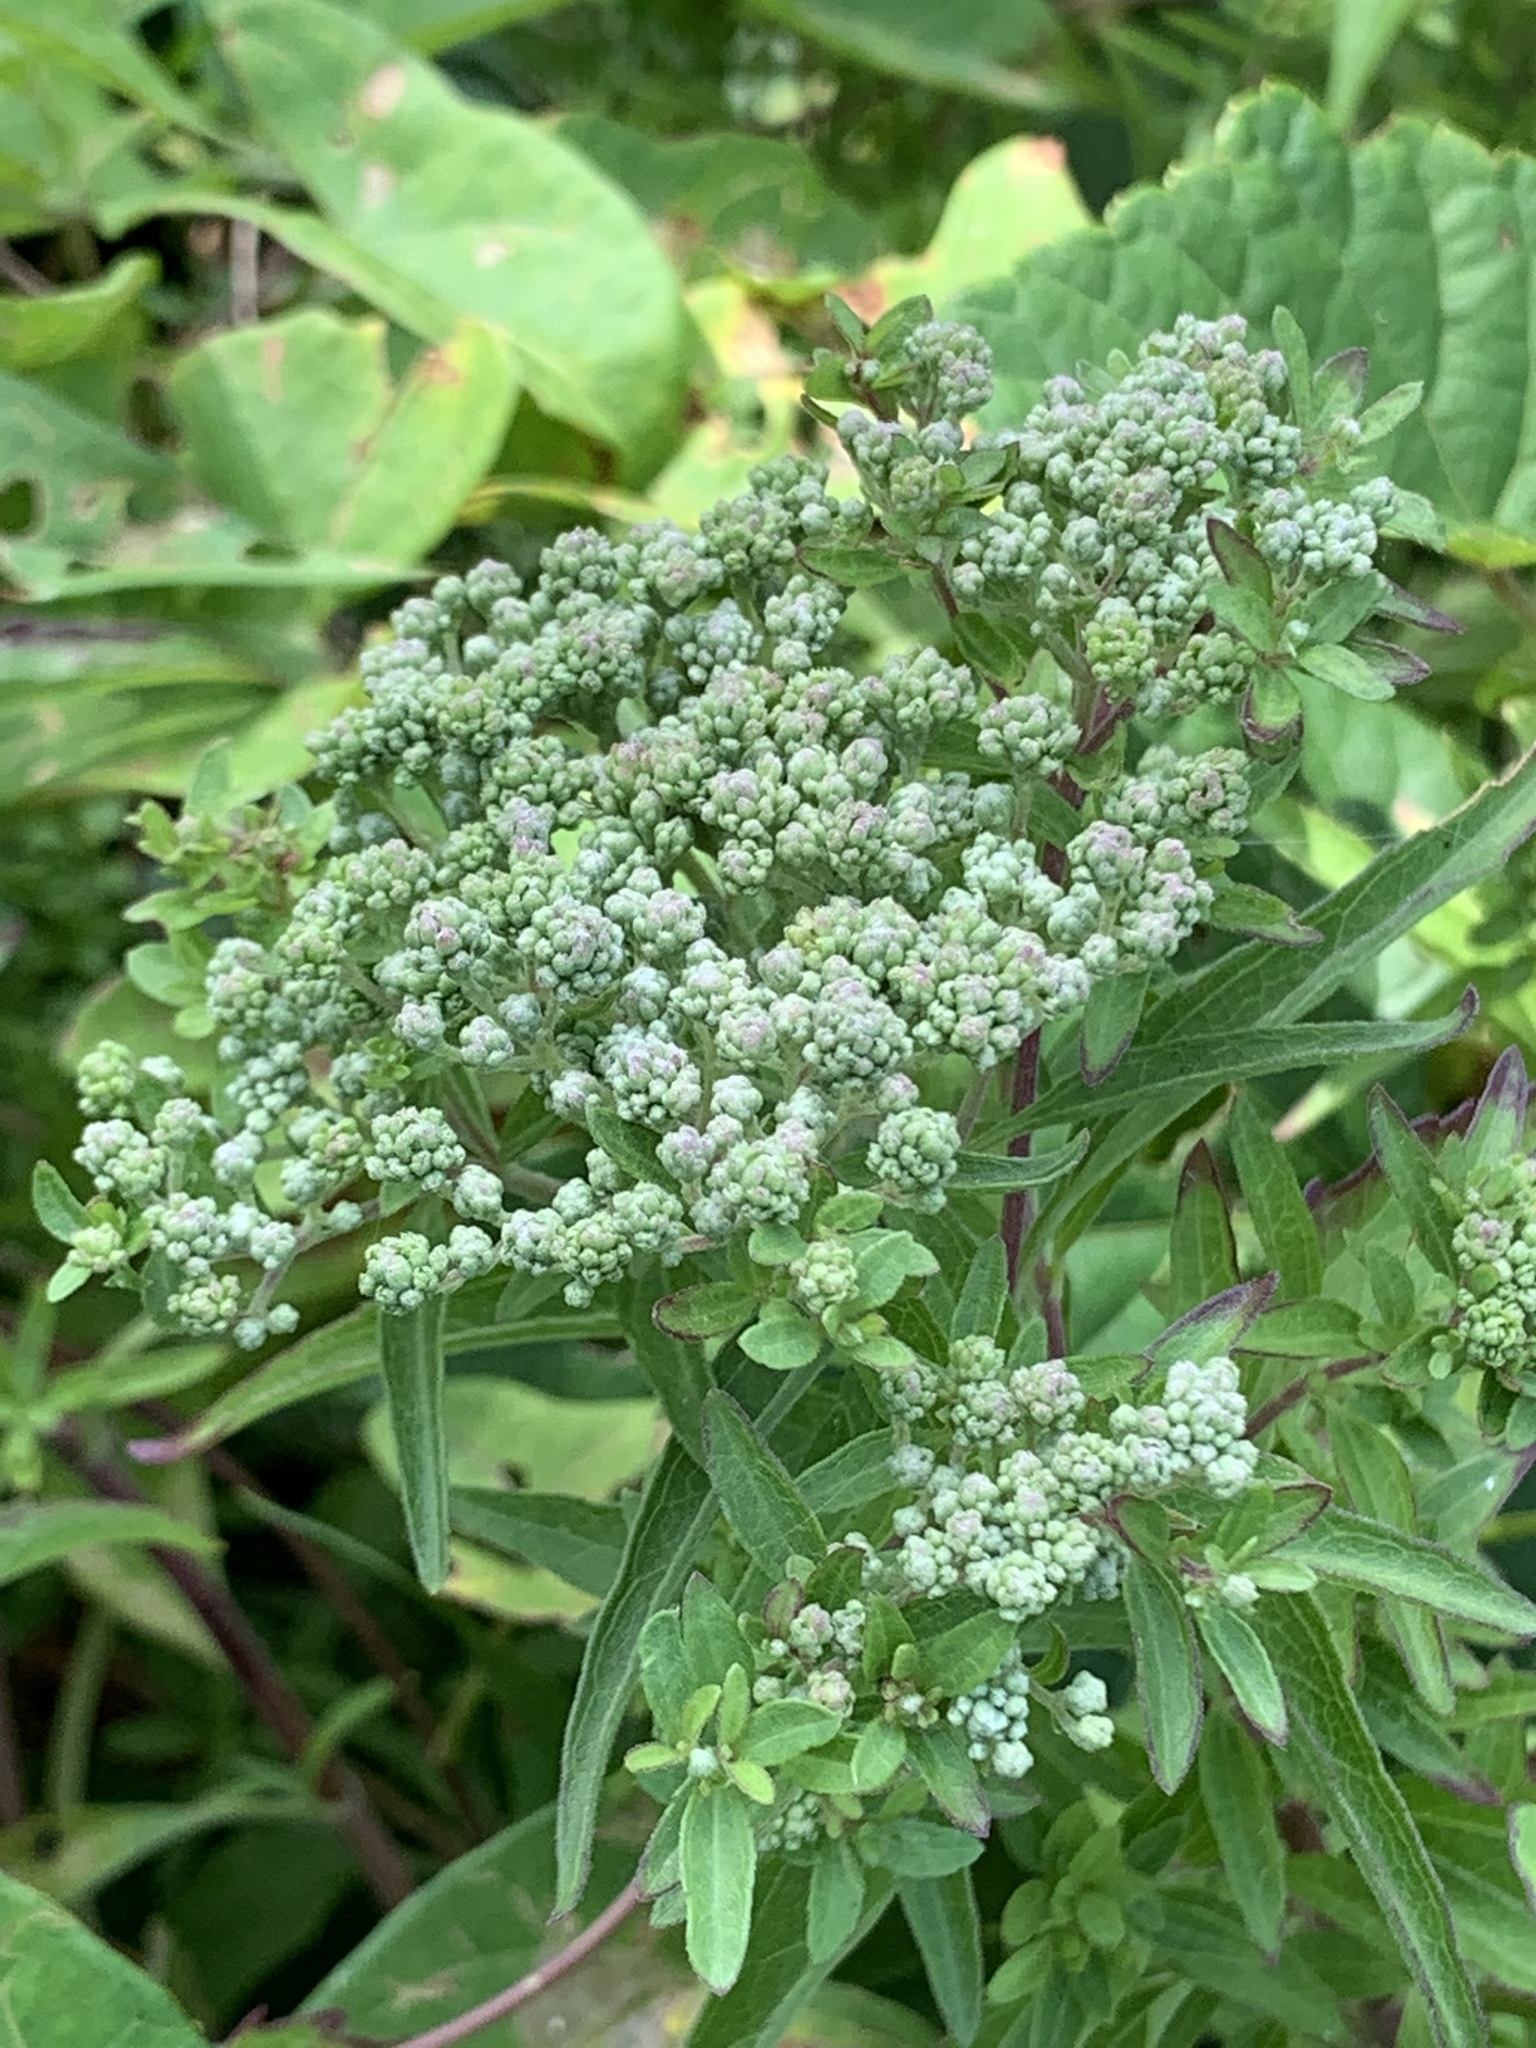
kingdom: Plantae
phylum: Tracheophyta
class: Magnoliopsida
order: Asterales
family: Asteraceae
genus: Eupatorium
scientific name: Eupatorium serotinum
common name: Late boneset
